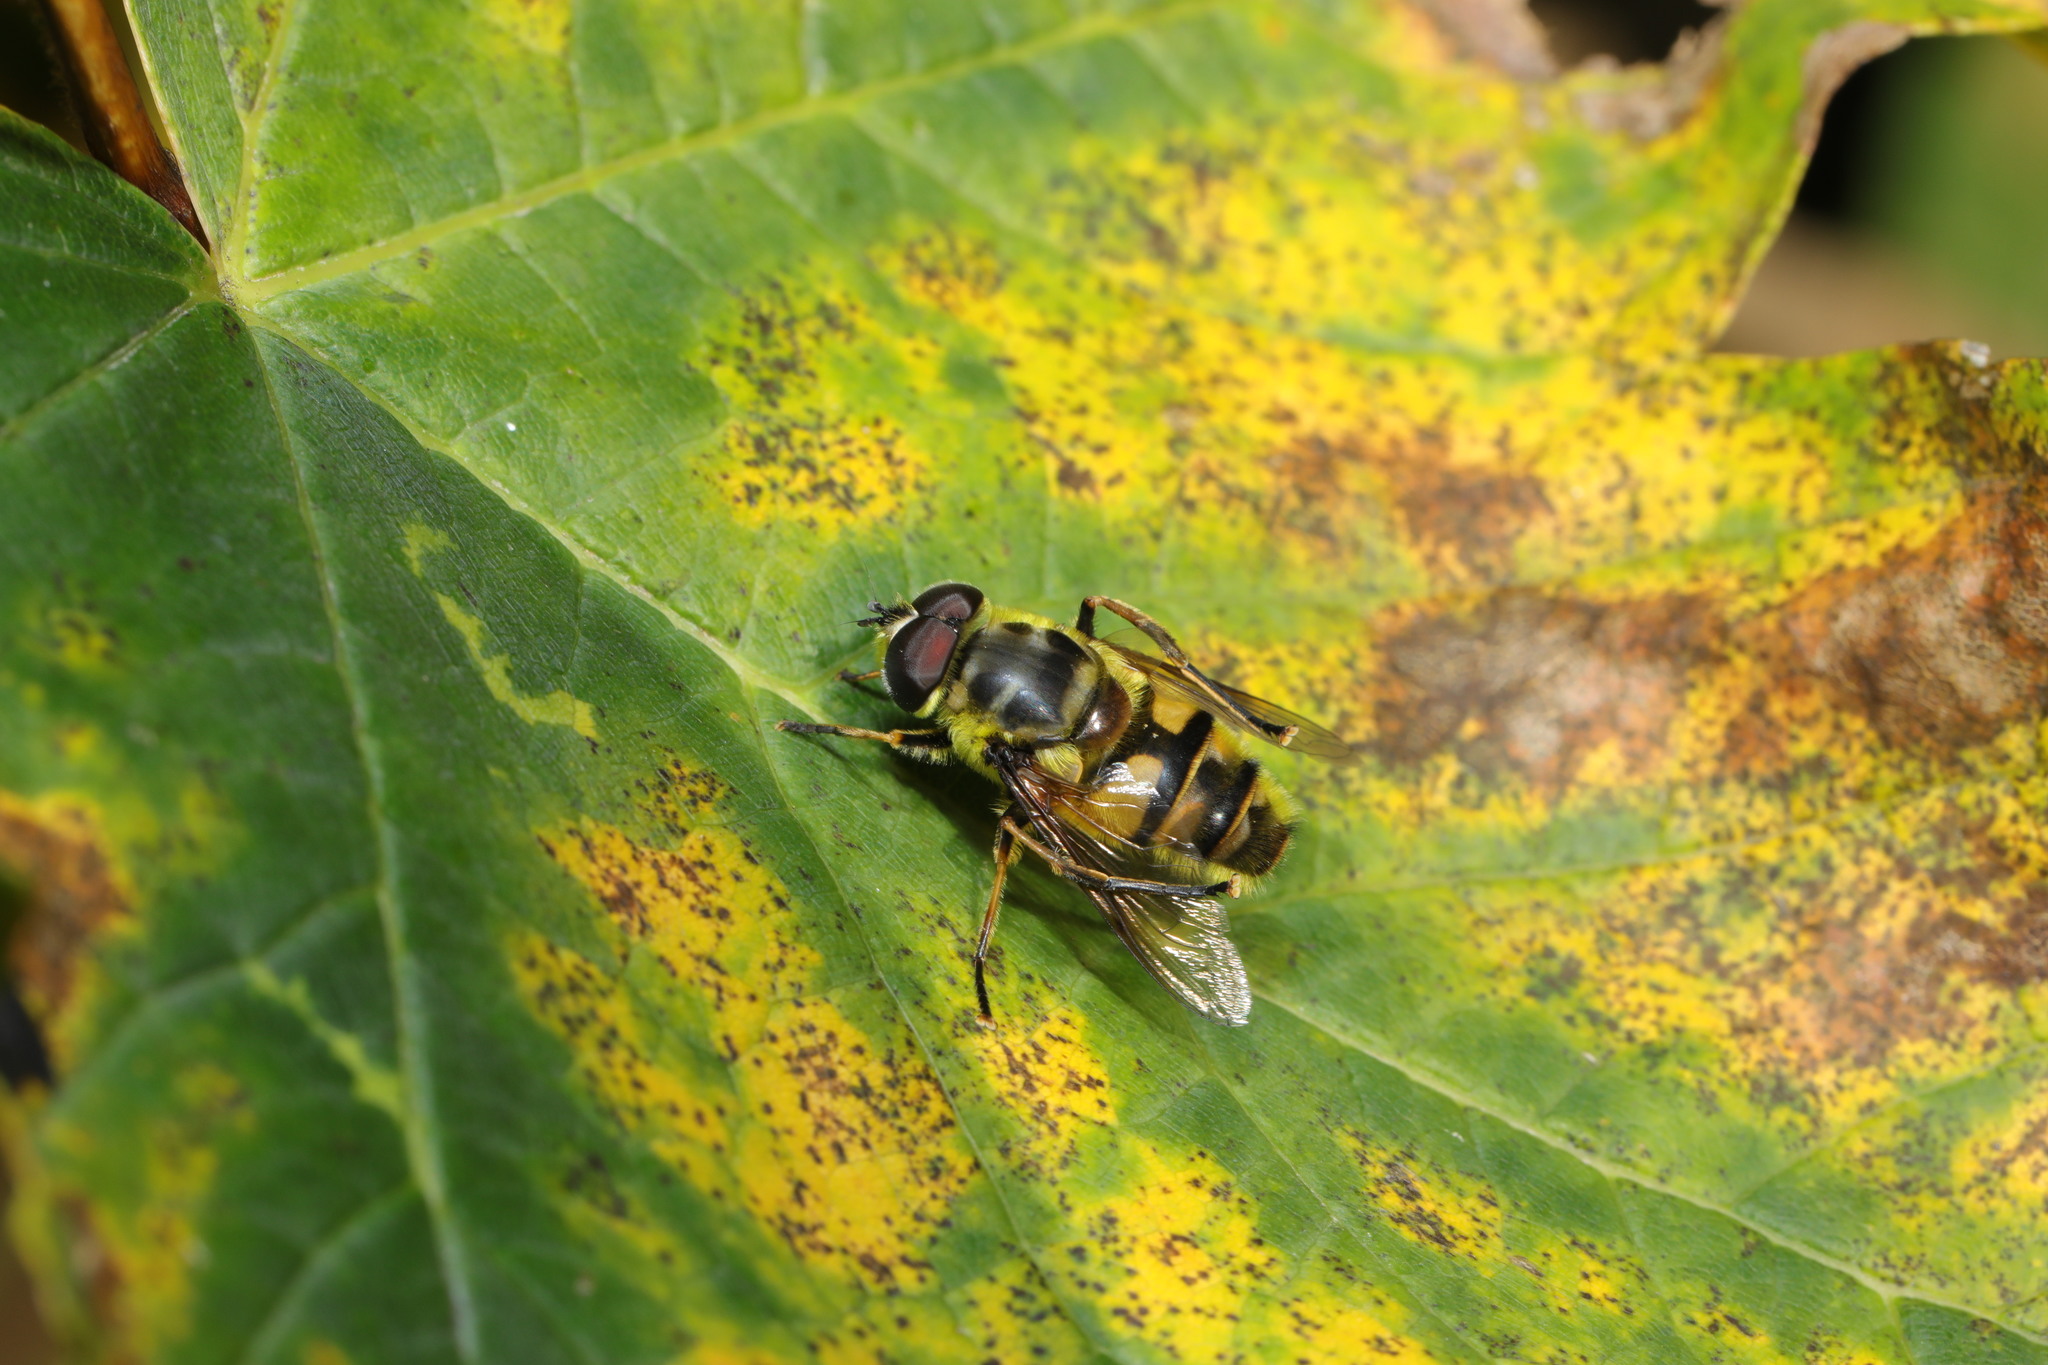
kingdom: Animalia
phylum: Arthropoda
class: Insecta
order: Diptera
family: Syrphidae
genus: Myathropa
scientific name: Myathropa florea
